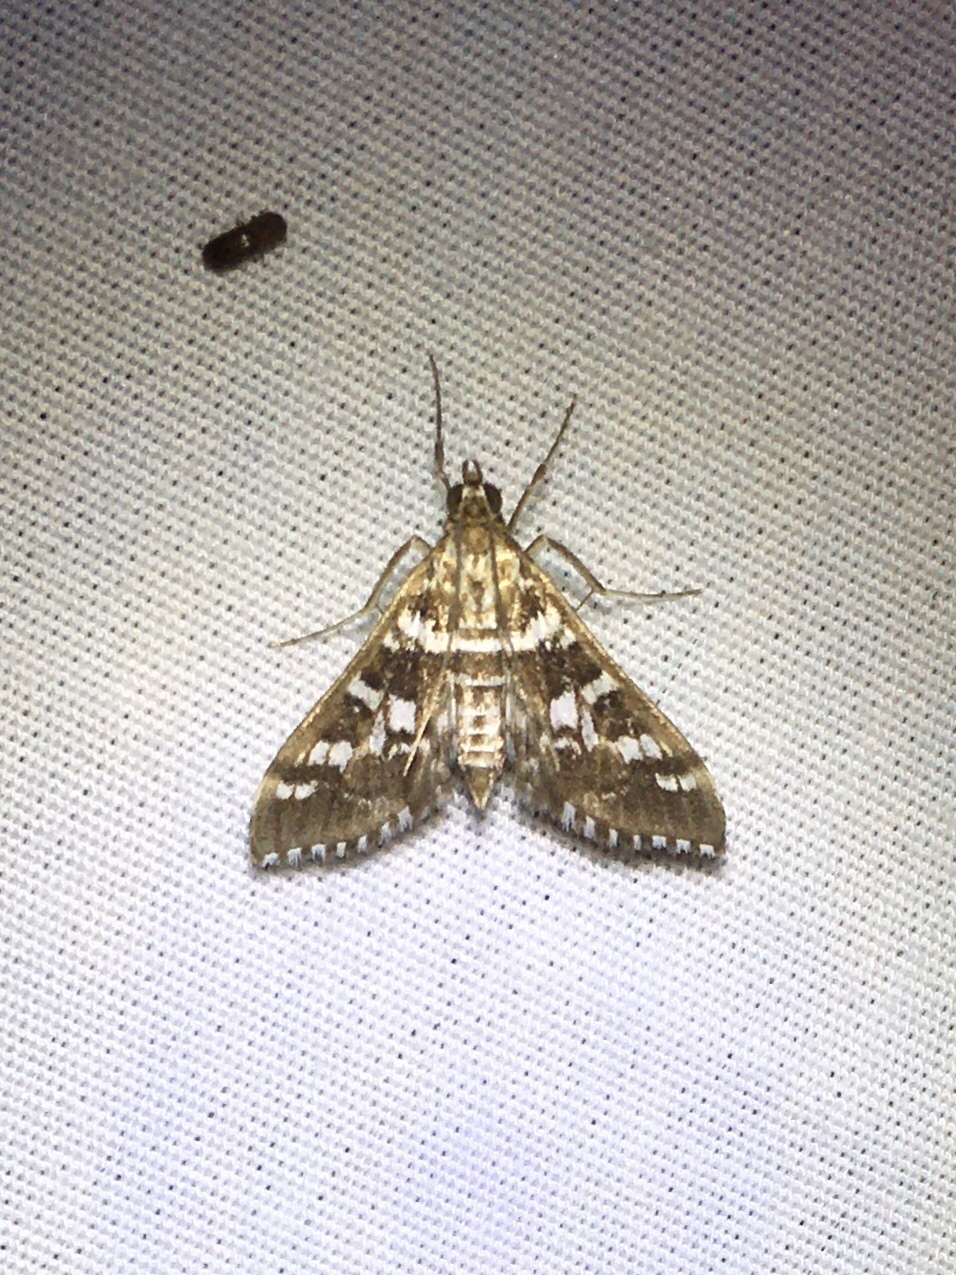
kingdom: Animalia
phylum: Arthropoda
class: Insecta
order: Lepidoptera
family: Crambidae
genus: Epipagis
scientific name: Epipagis forsythae
